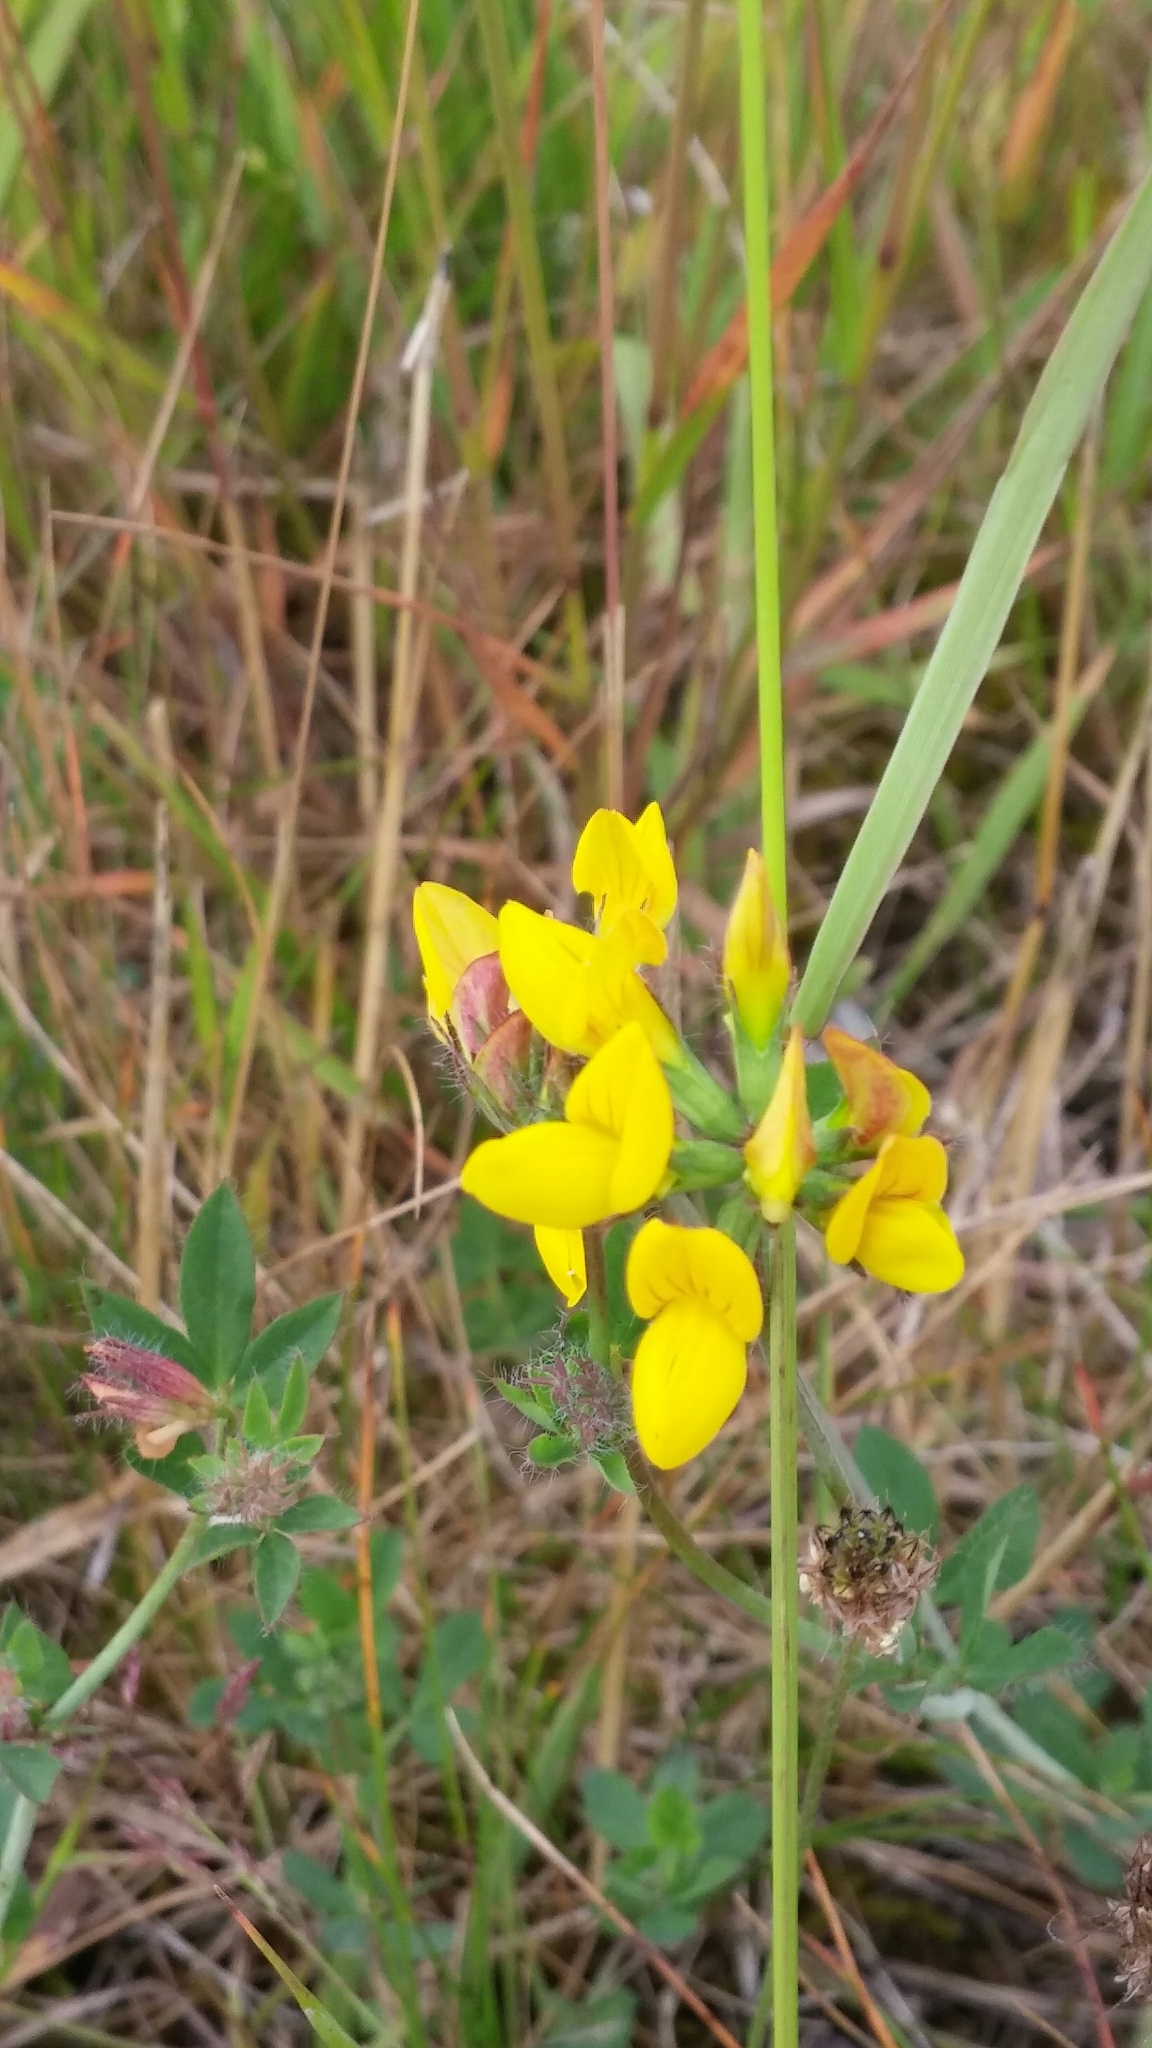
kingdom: Plantae
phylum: Tracheophyta
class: Magnoliopsida
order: Fabales
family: Fabaceae
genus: Lotus
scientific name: Lotus corniculatus
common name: Common bird's-foot-trefoil
